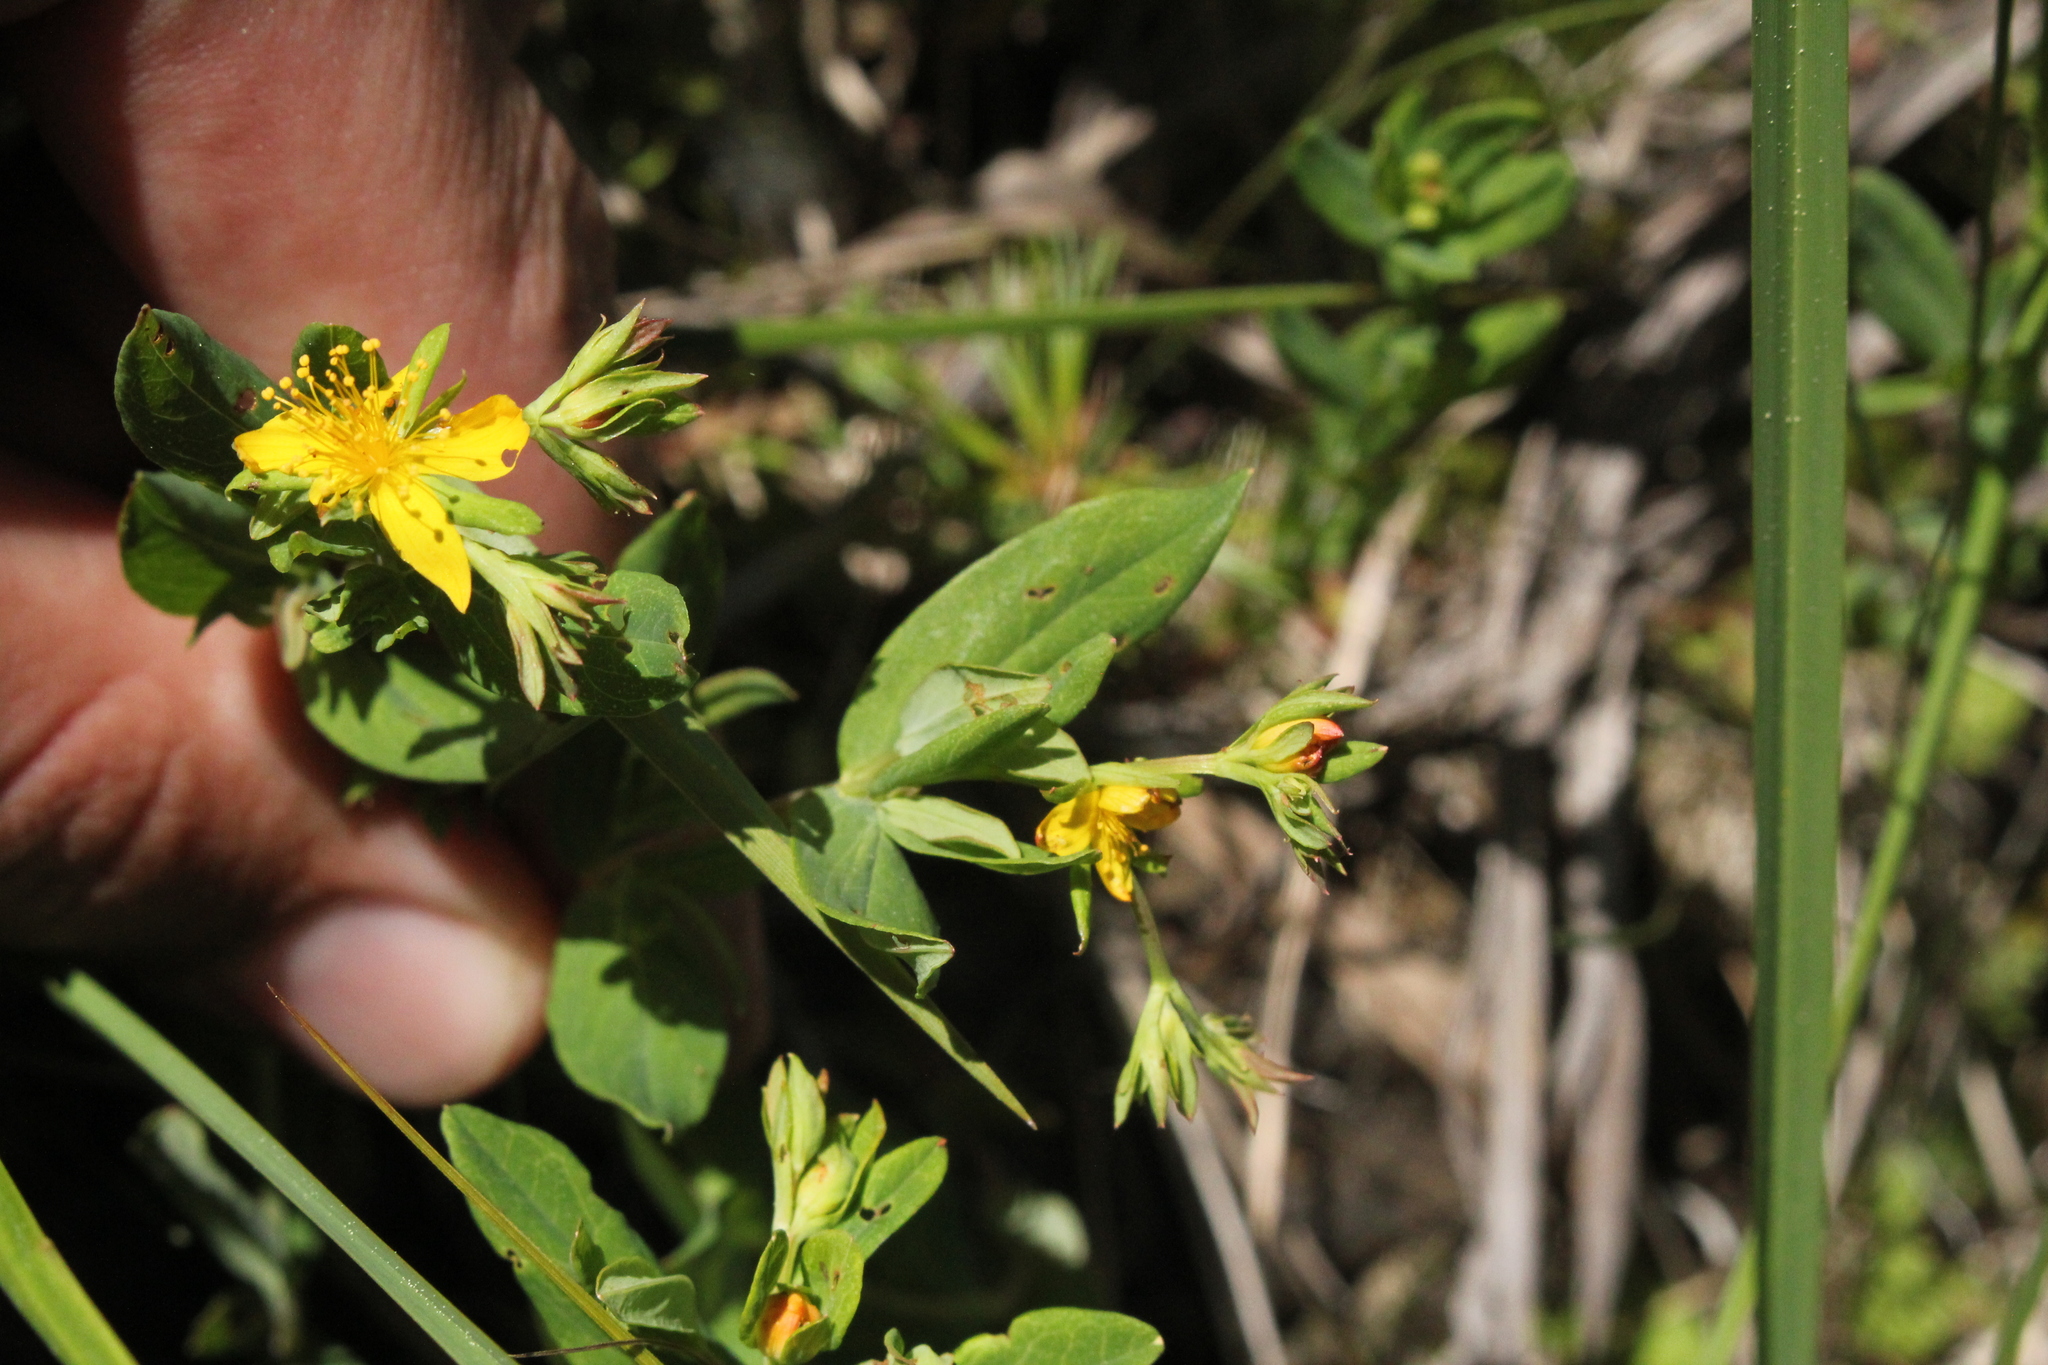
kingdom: Plantae
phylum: Tracheophyta
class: Magnoliopsida
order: Malpighiales
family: Hypericaceae
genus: Hypericum
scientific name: Hypericum ellipticum
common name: Elliptic st. john's-wort
